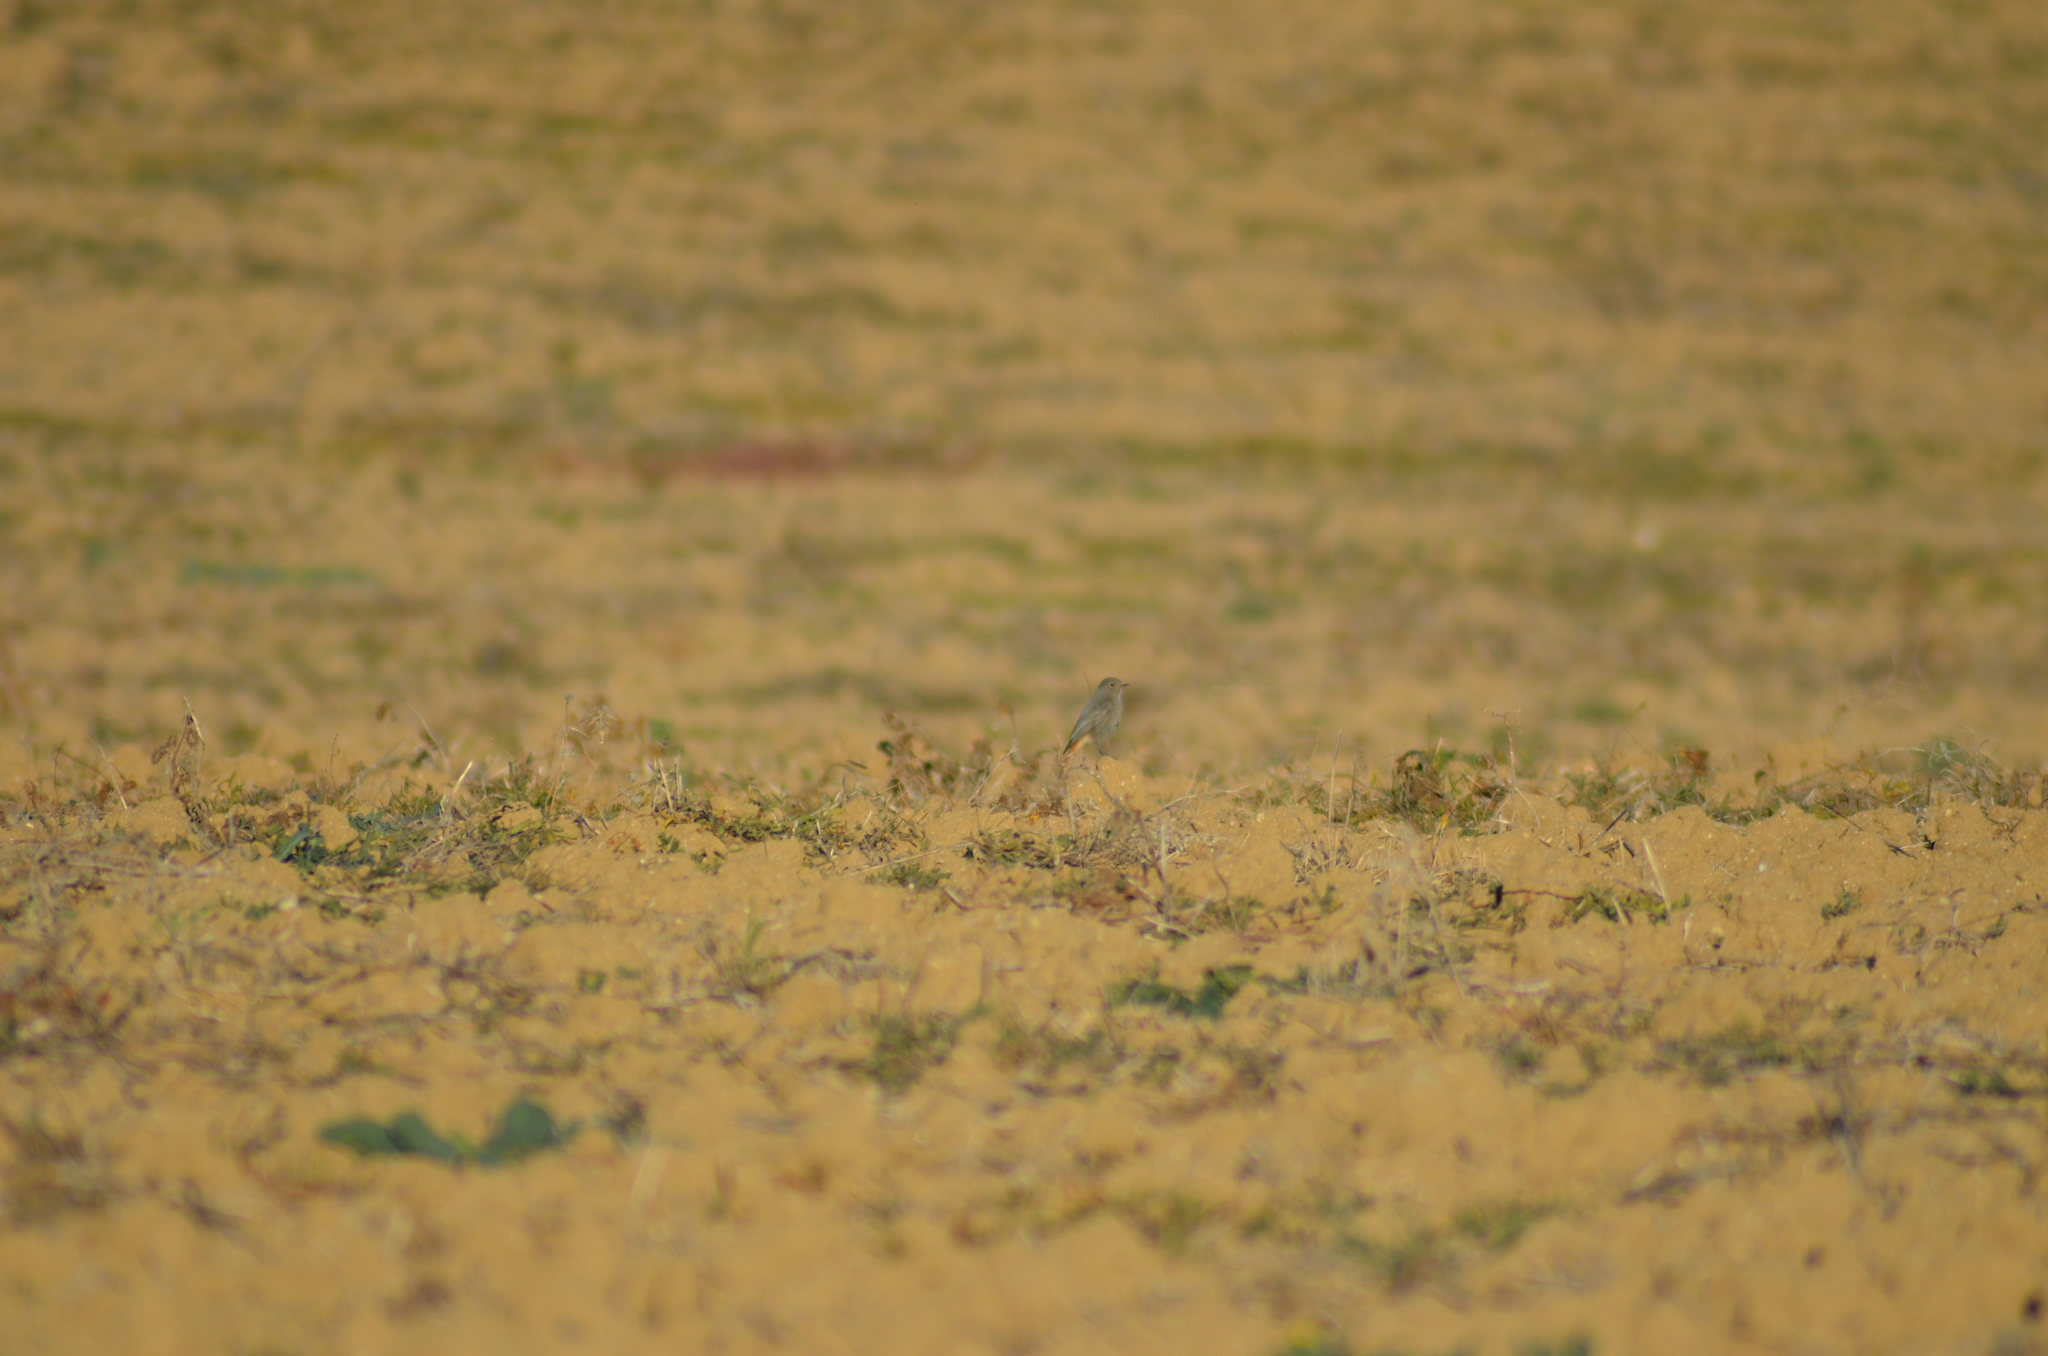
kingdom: Animalia
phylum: Chordata
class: Aves
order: Passeriformes
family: Muscicapidae
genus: Phoenicurus
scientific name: Phoenicurus ochruros
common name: Black redstart
